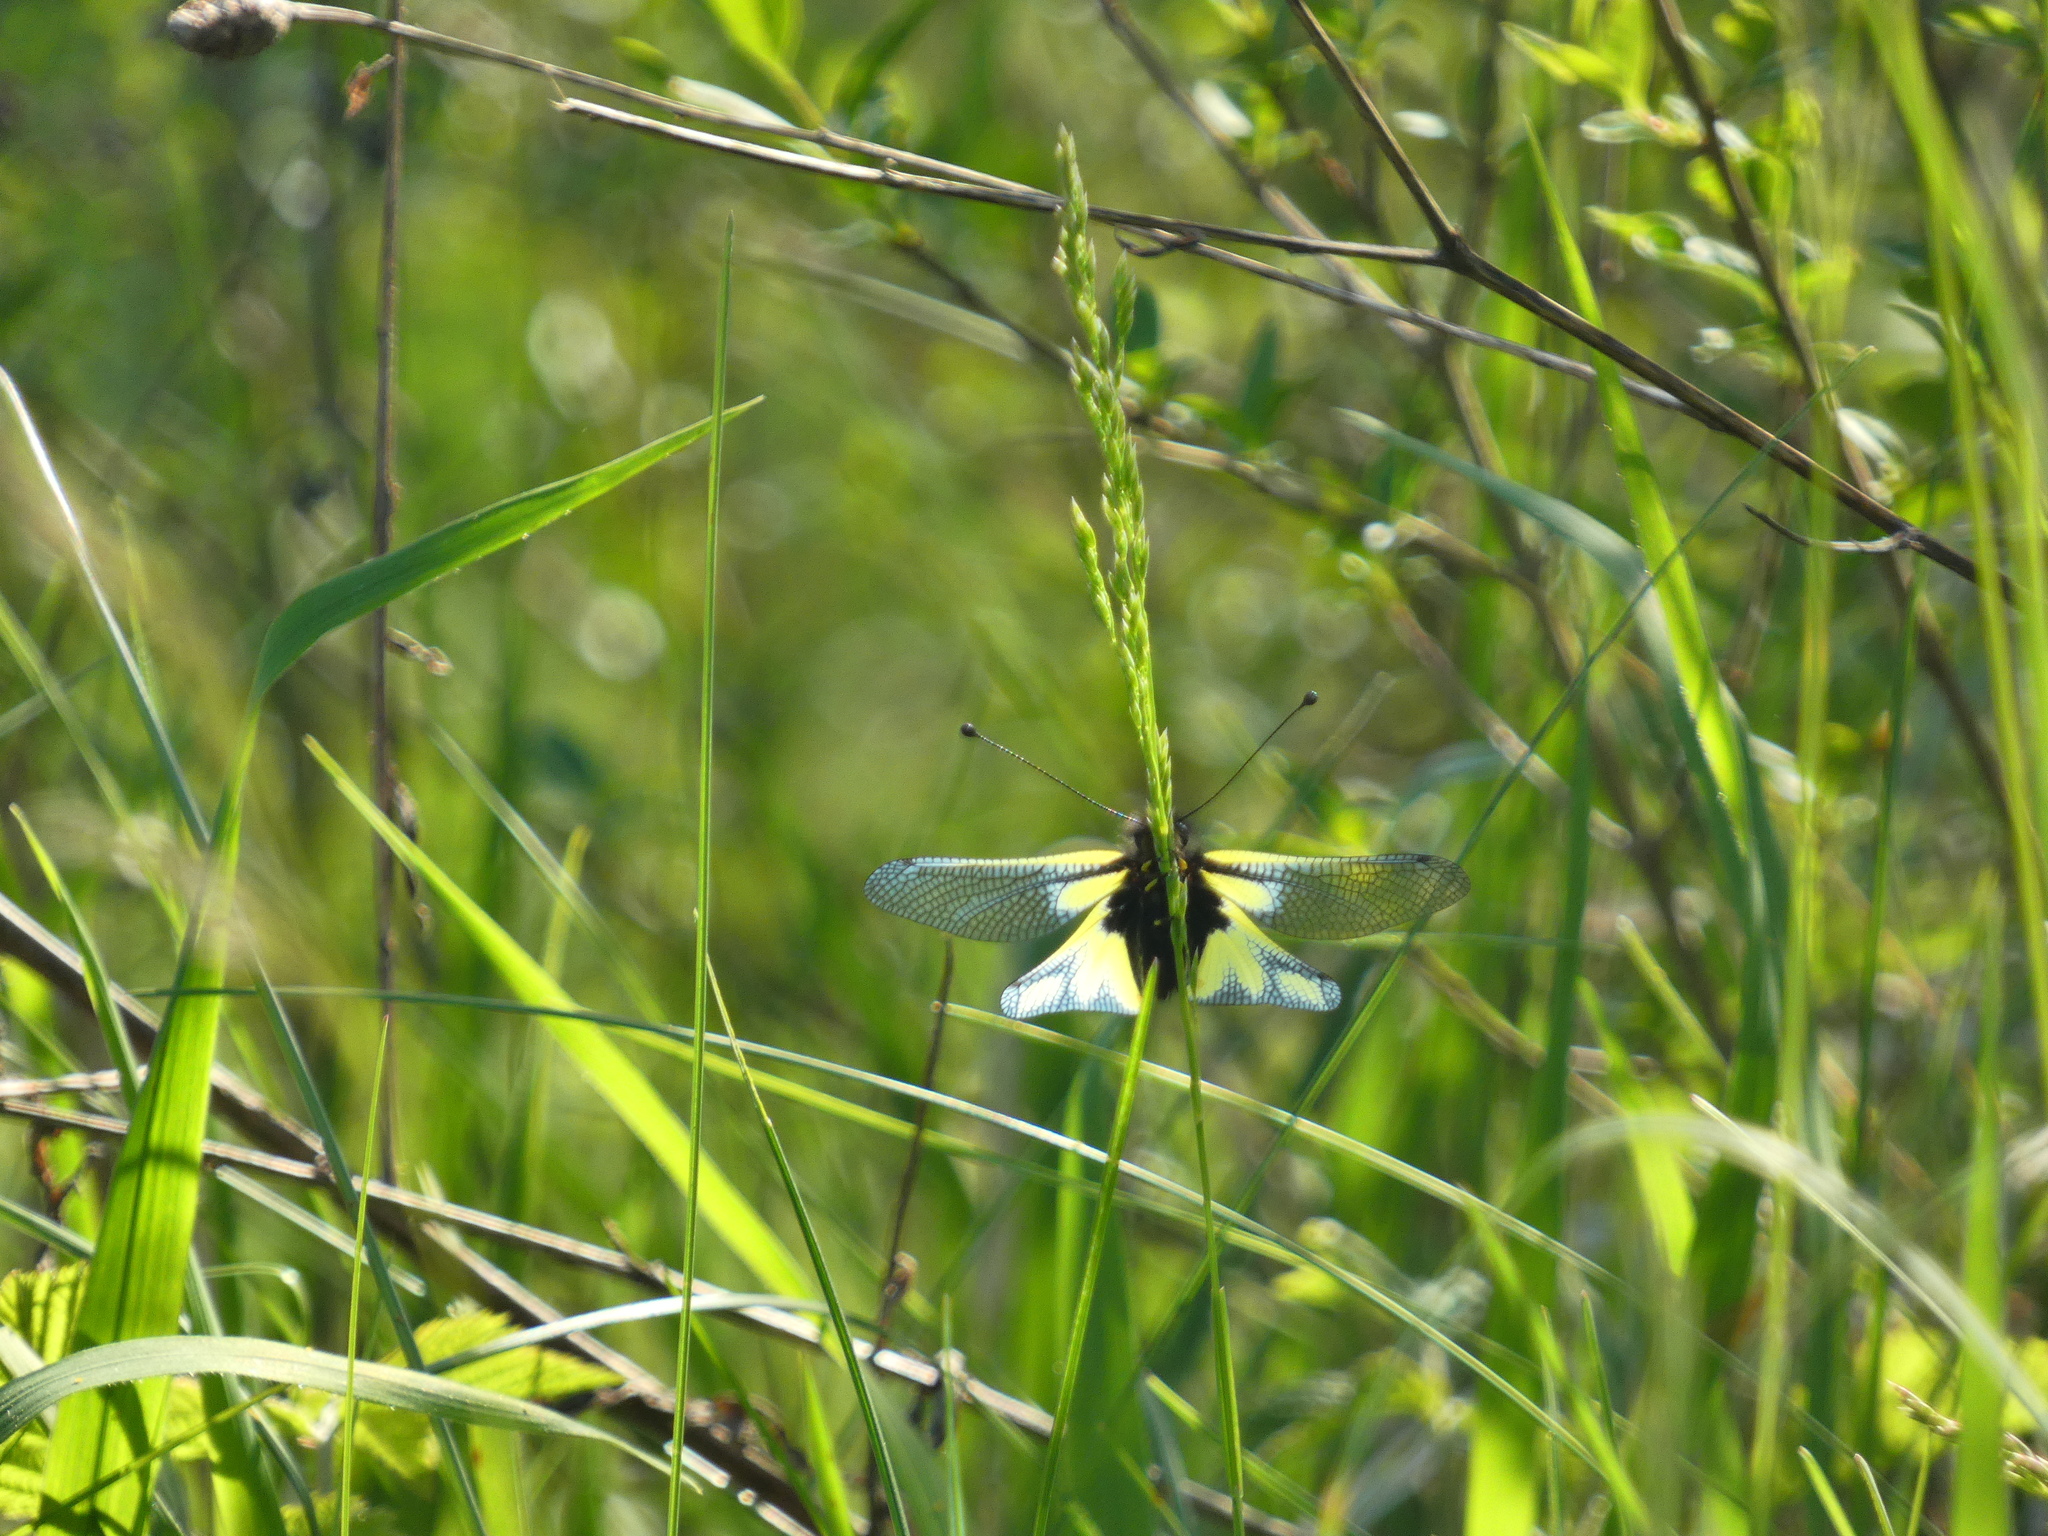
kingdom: Animalia
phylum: Arthropoda
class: Insecta
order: Neuroptera
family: Ascalaphidae
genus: Libelloides
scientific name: Libelloides coccajus
